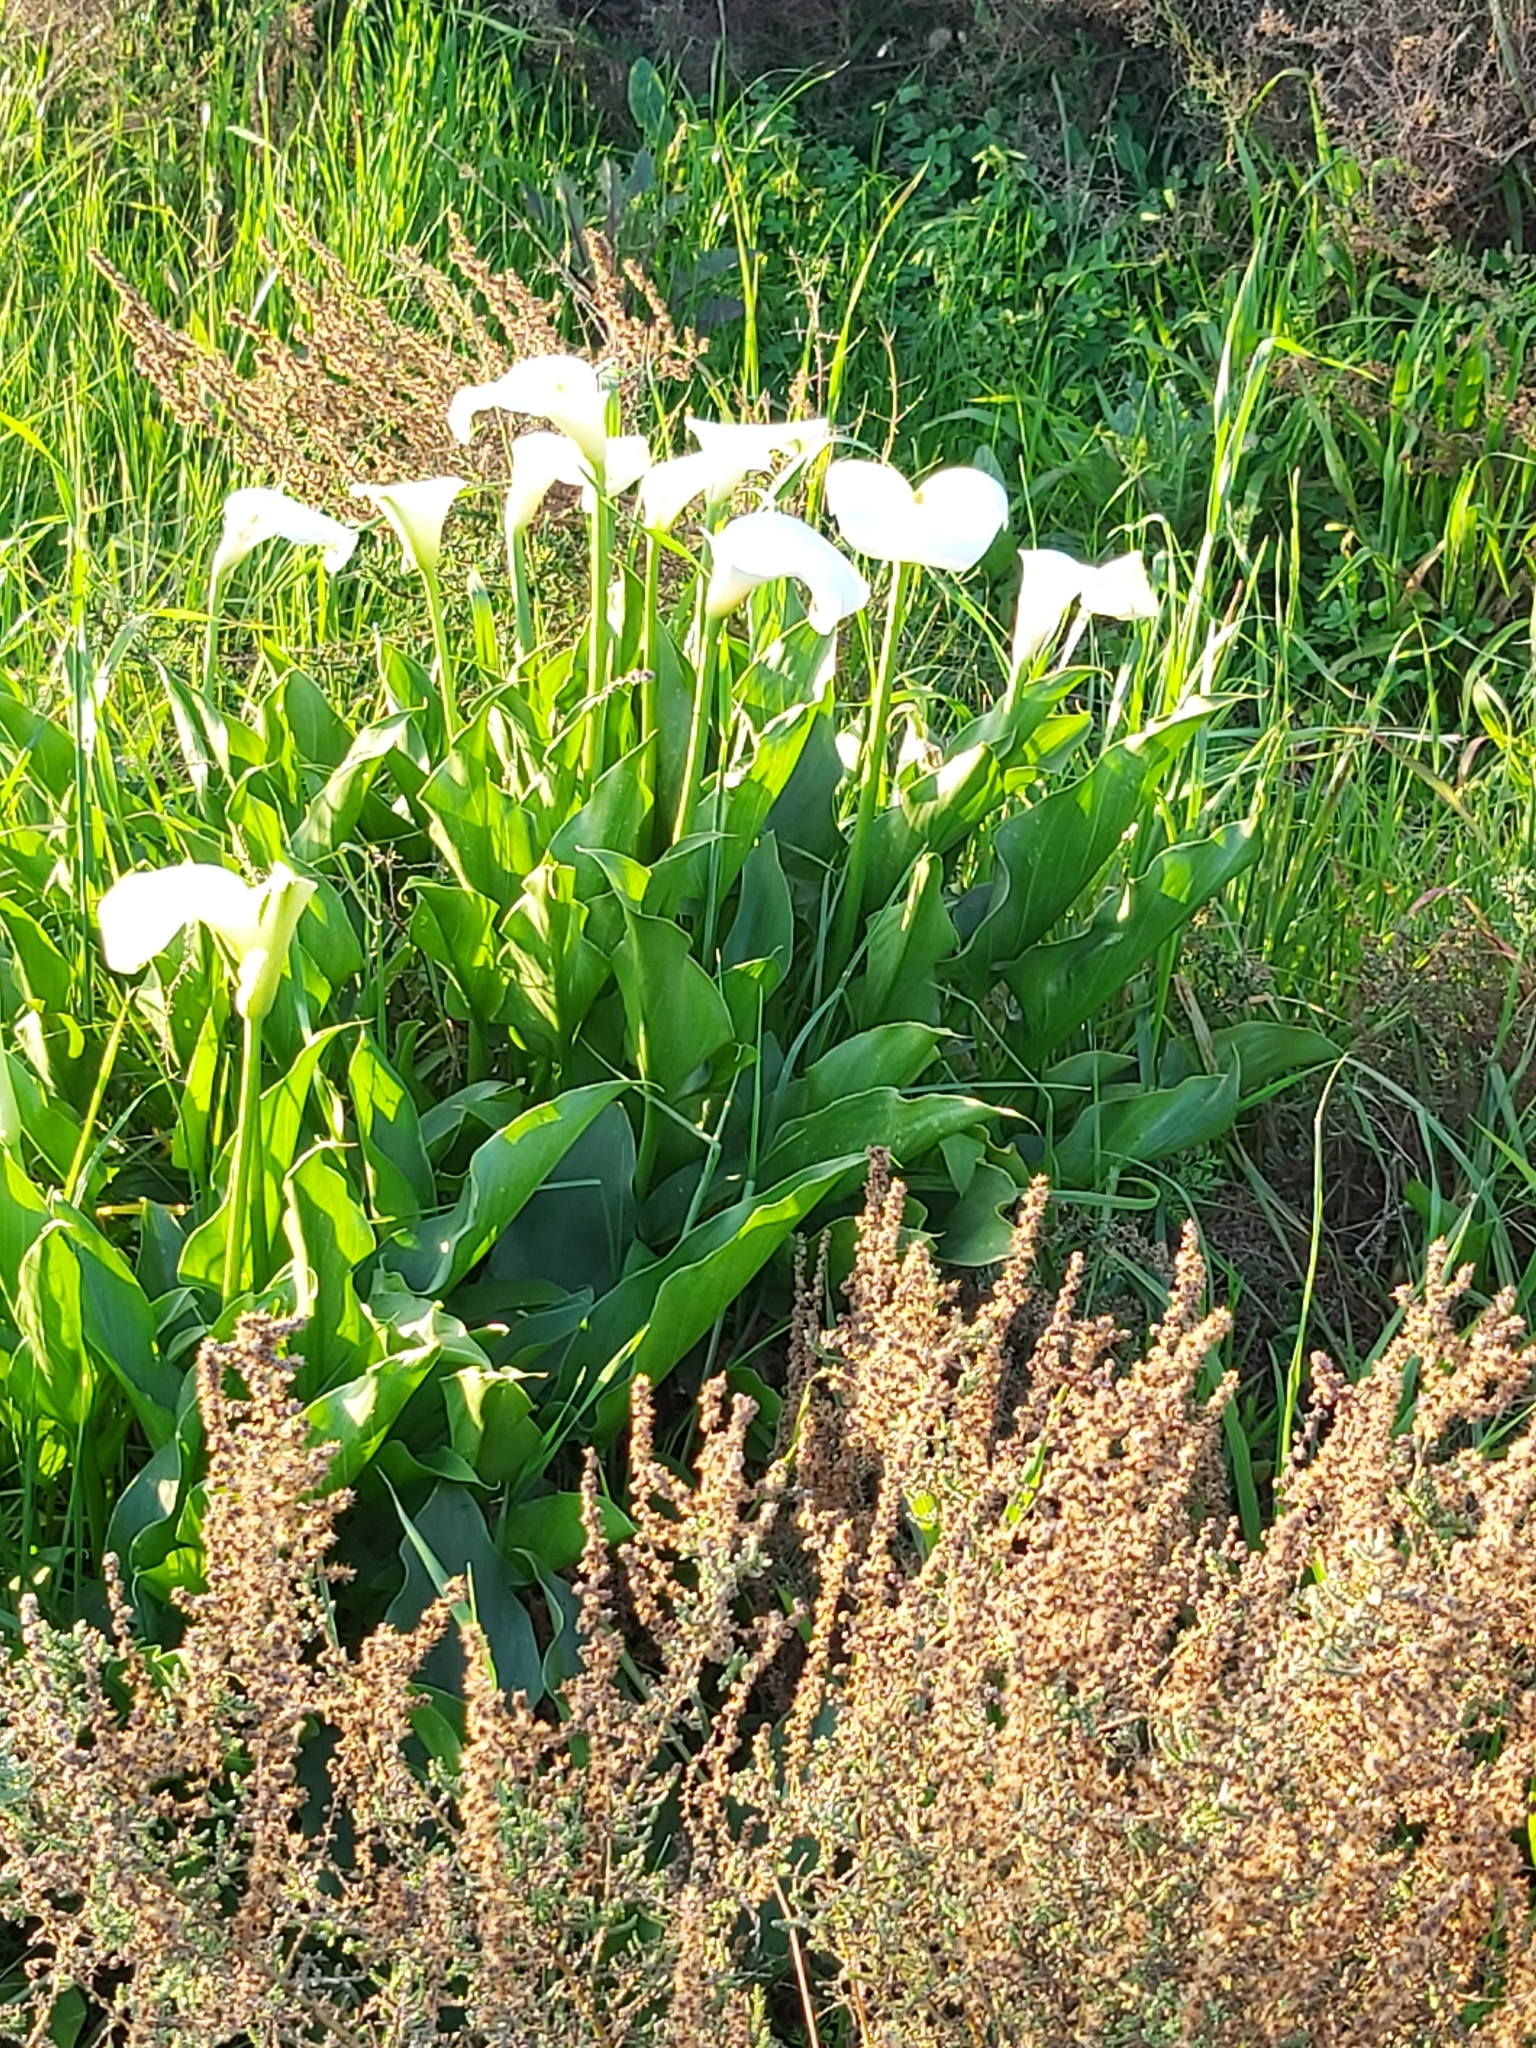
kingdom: Plantae
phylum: Tracheophyta
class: Liliopsida
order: Alismatales
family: Araceae
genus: Zantedeschia
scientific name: Zantedeschia aethiopica
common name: Altar-lily
